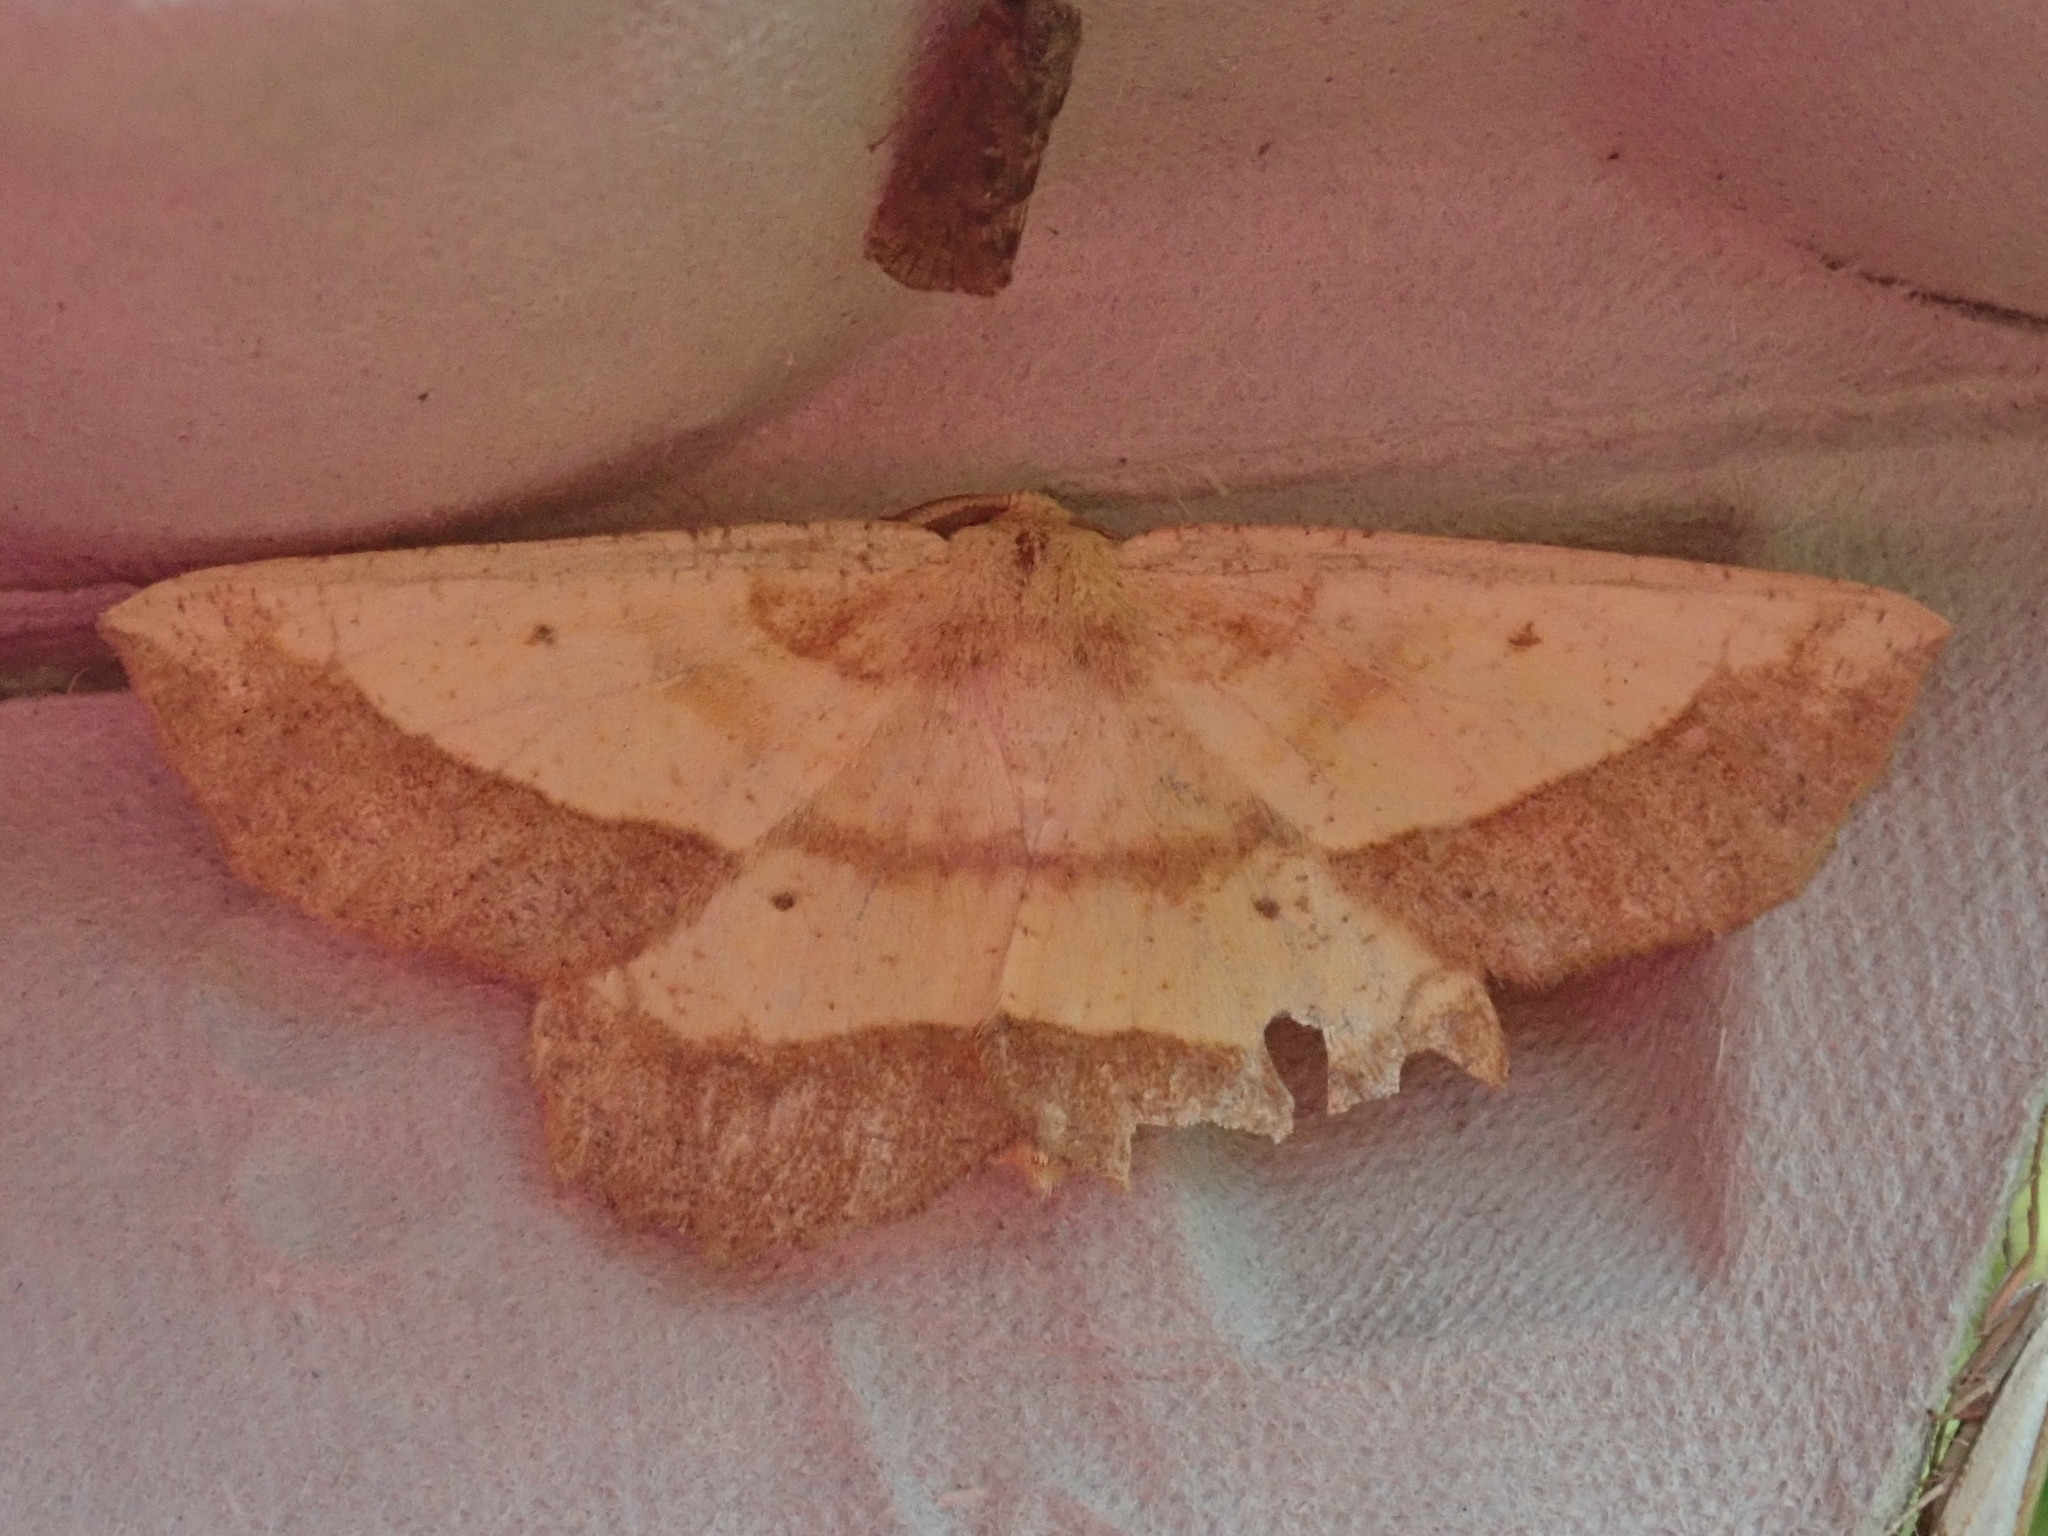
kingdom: Animalia
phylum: Arthropoda
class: Insecta
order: Lepidoptera
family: Geometridae
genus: Euchlaena
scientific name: Euchlaena serrata
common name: Saw wing
